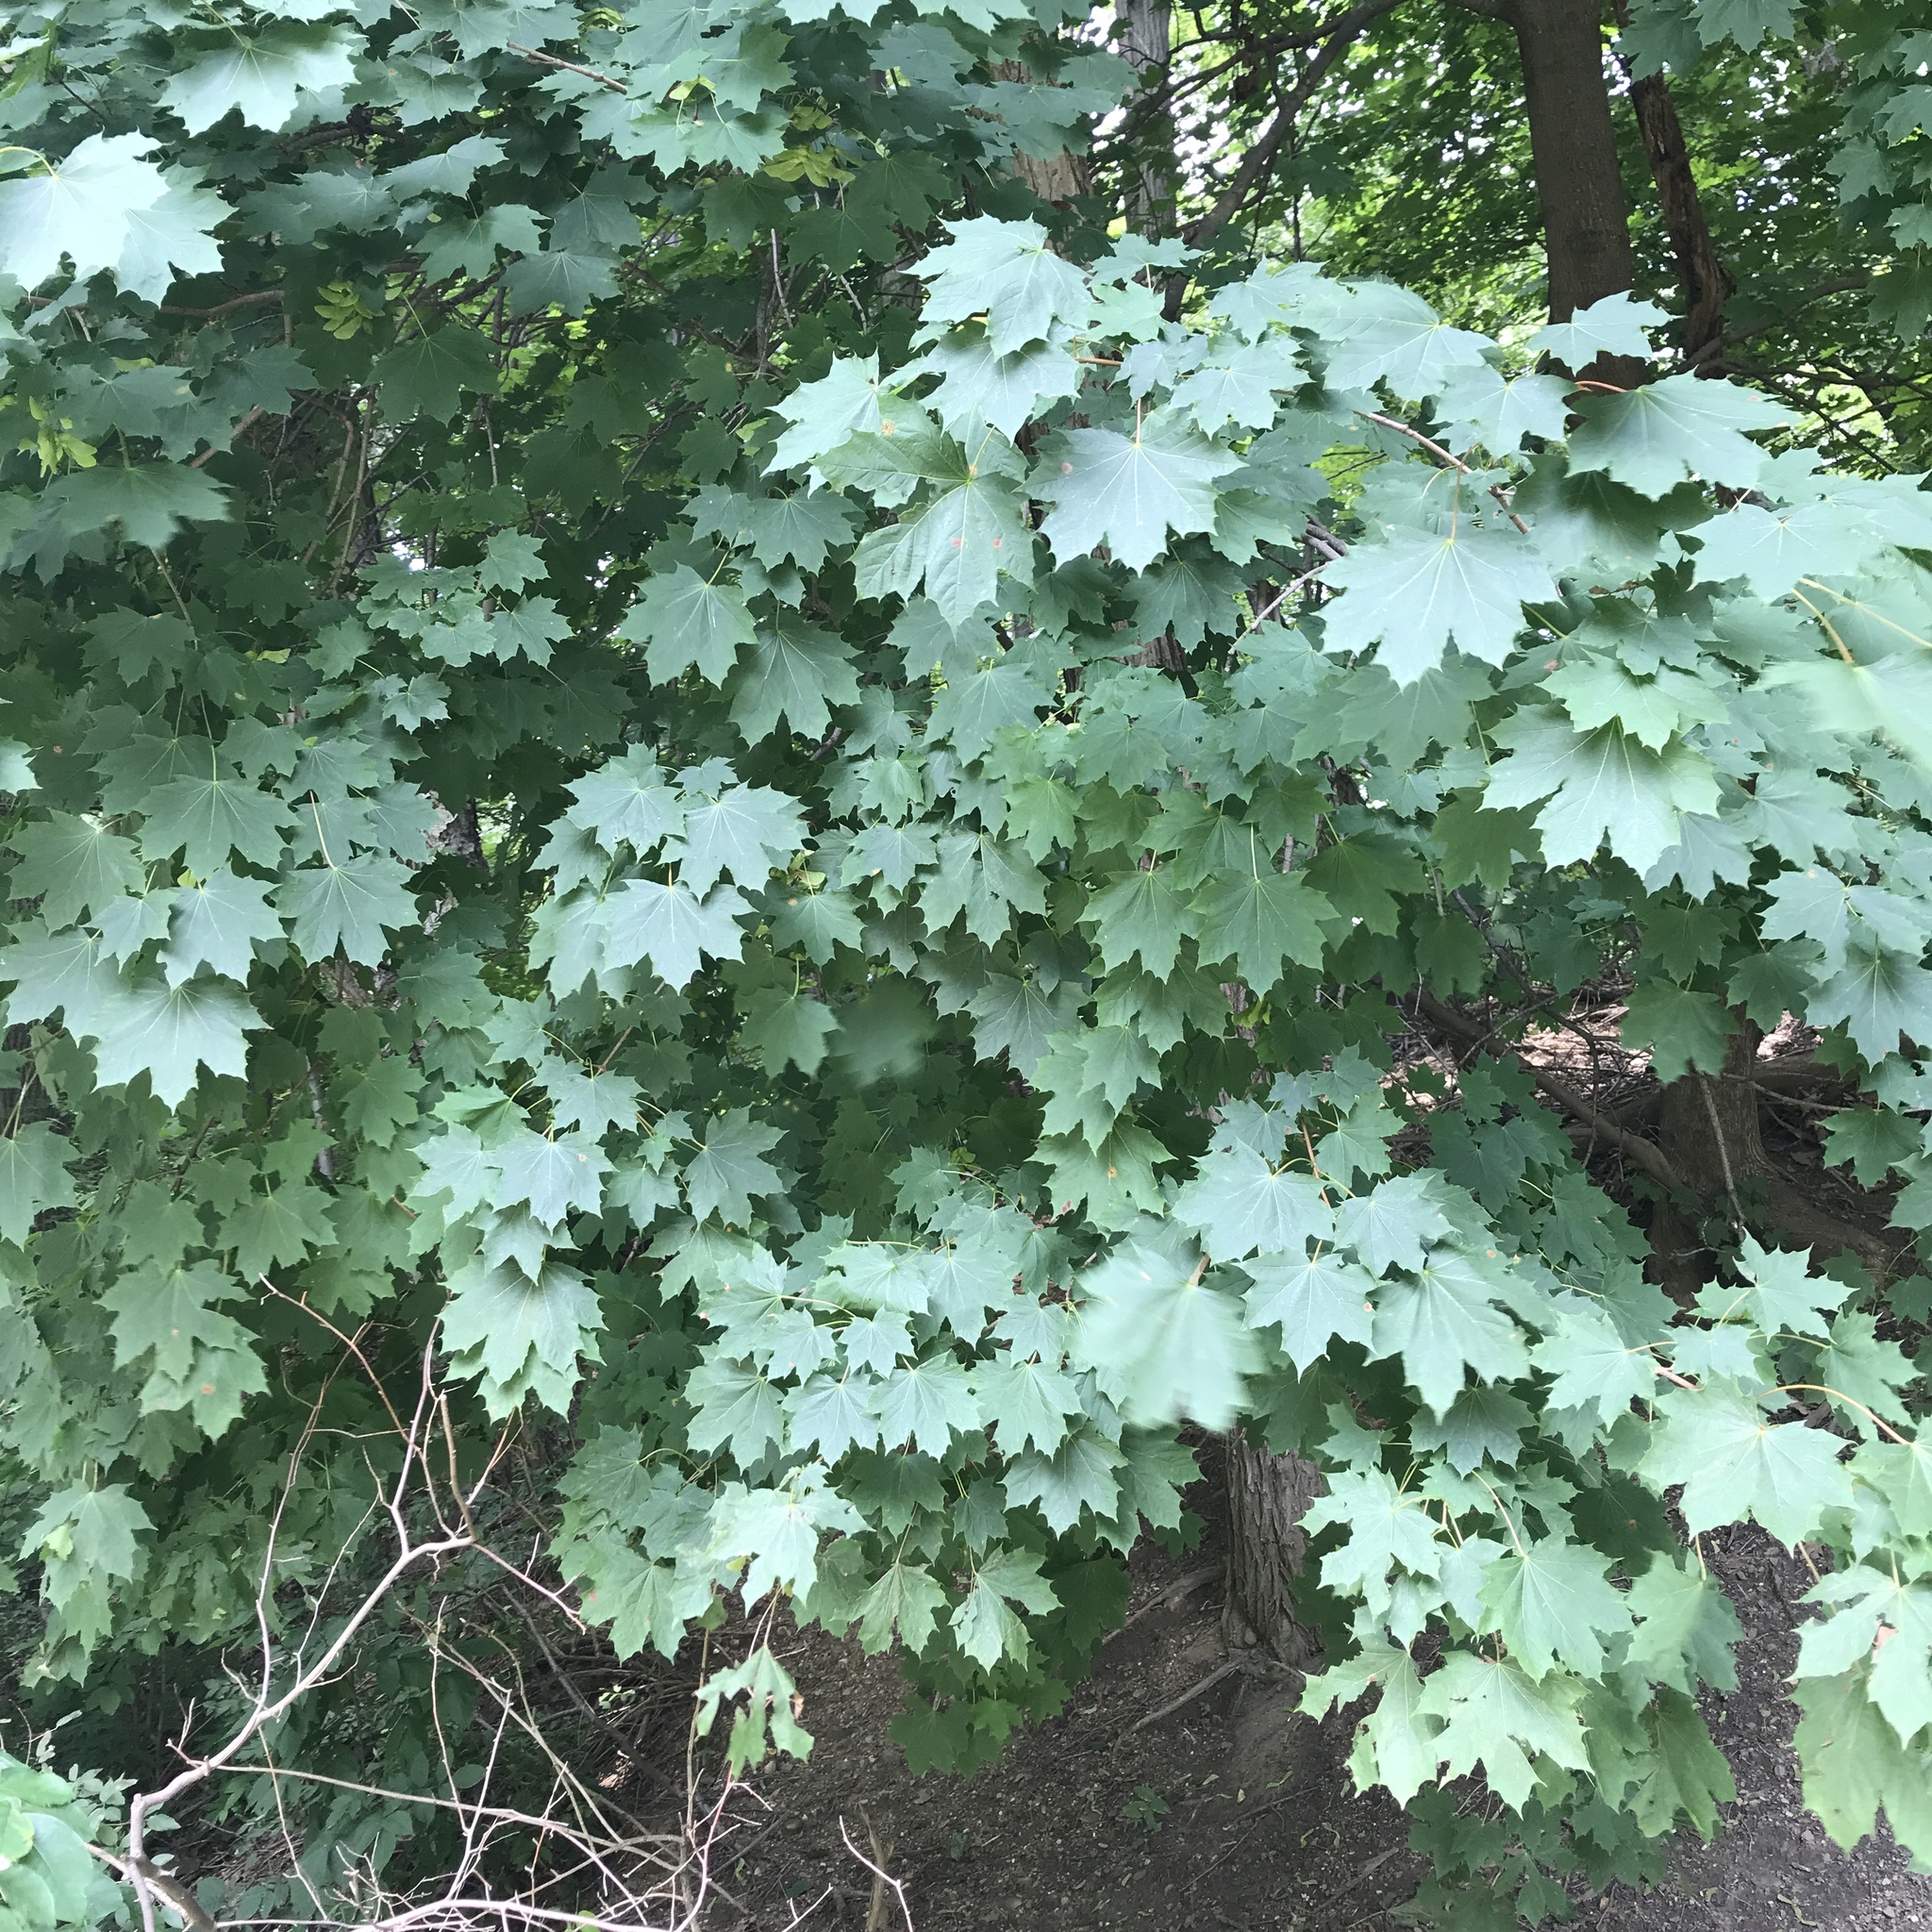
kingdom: Plantae
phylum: Tracheophyta
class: Magnoliopsida
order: Sapindales
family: Sapindaceae
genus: Acer
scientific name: Acer platanoides
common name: Norway maple
